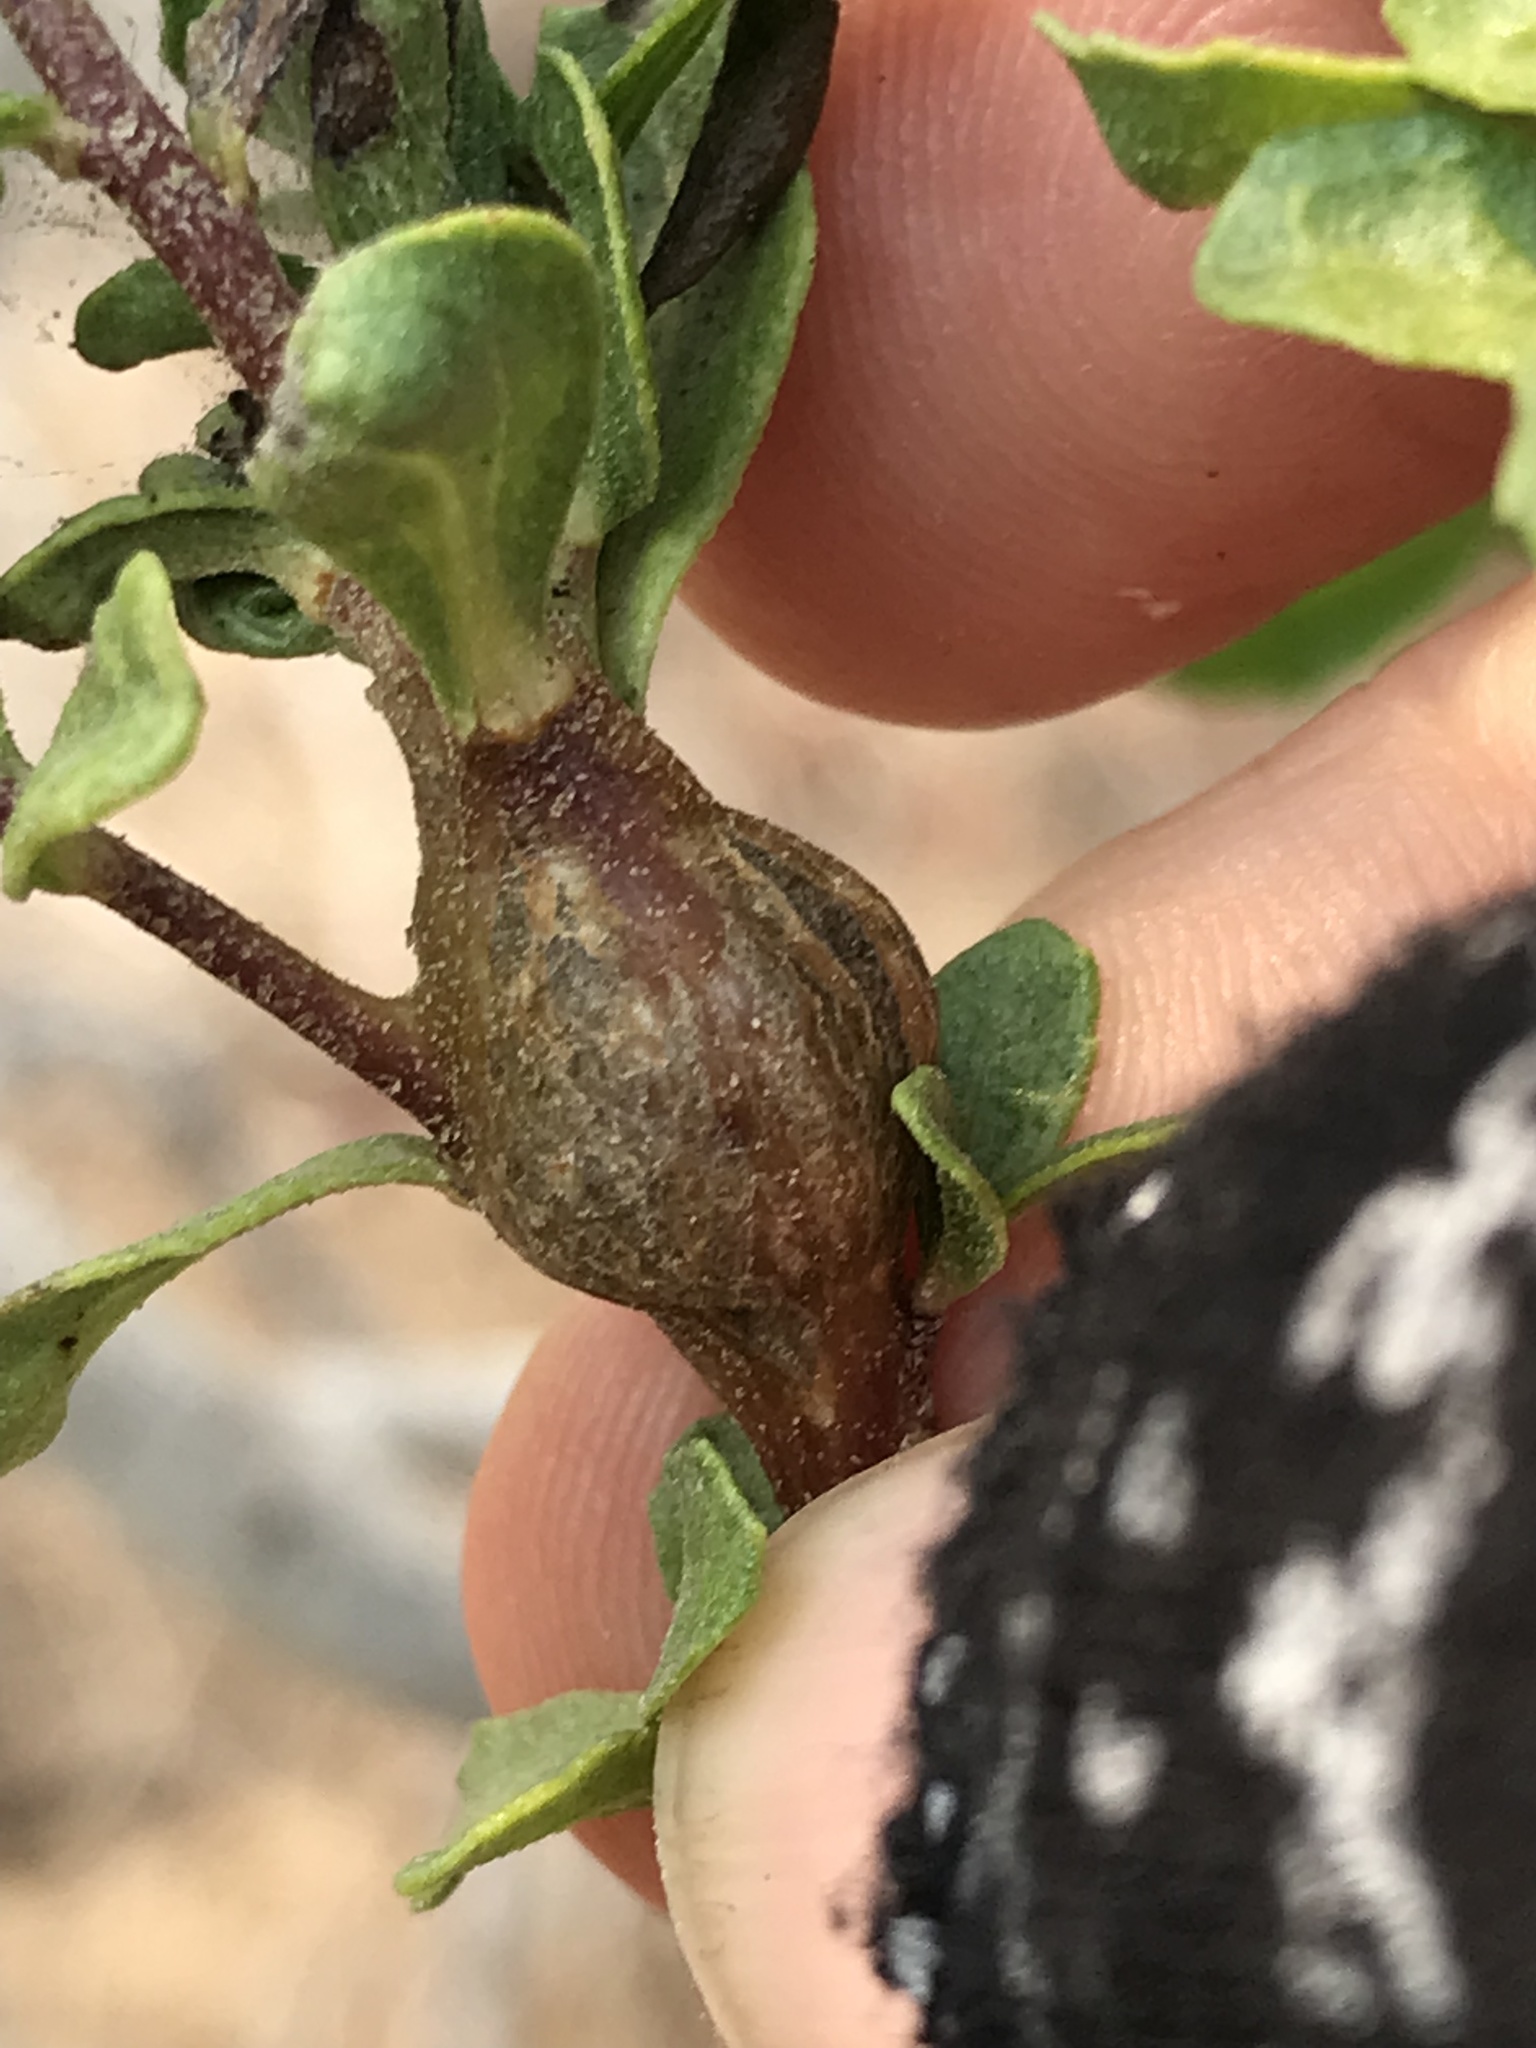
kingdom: Animalia
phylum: Arthropoda
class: Insecta
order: Lepidoptera
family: Gelechiidae
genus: Gnorimoschema
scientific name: Gnorimoschema baccharisella
